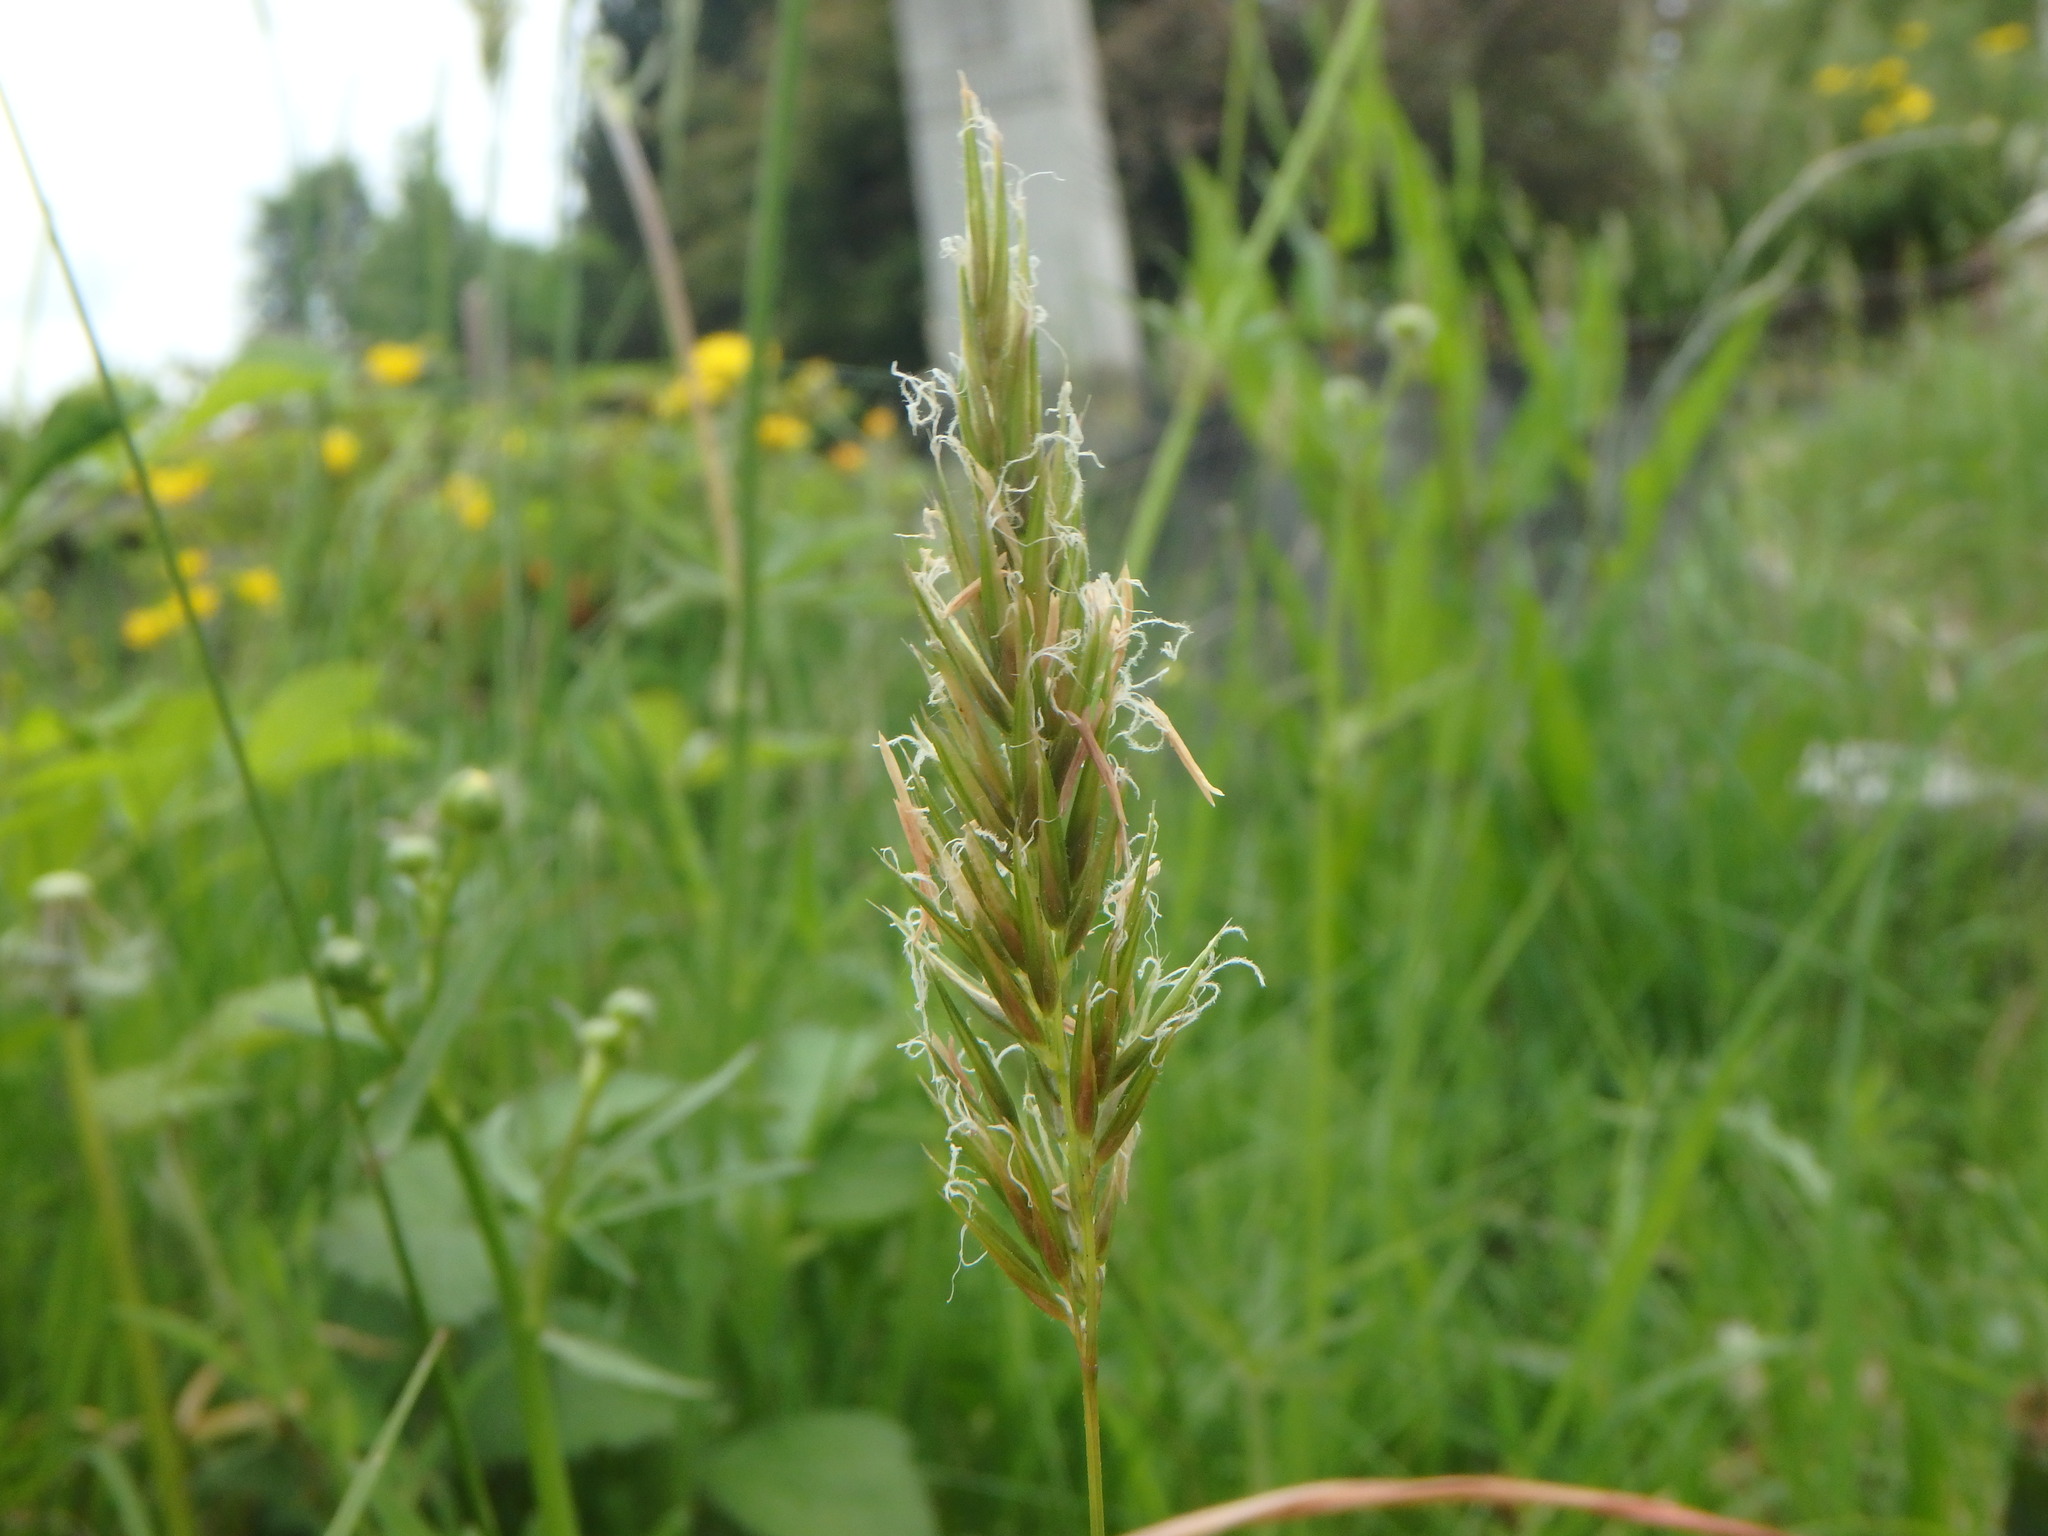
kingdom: Plantae
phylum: Tracheophyta
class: Liliopsida
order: Poales
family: Poaceae
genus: Anthoxanthum
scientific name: Anthoxanthum odoratum
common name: Sweet vernalgrass
